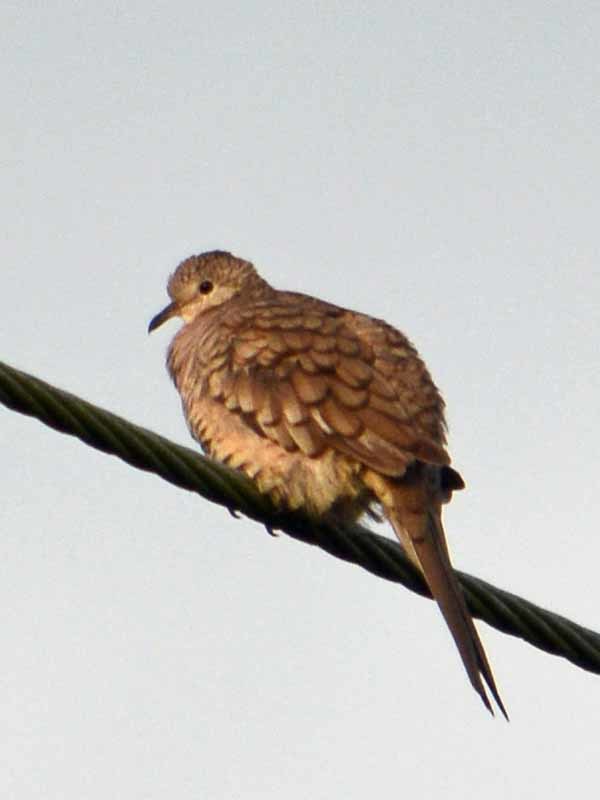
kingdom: Animalia
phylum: Chordata
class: Aves
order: Columbiformes
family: Columbidae
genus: Columbina
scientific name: Columbina inca
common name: Inca dove
